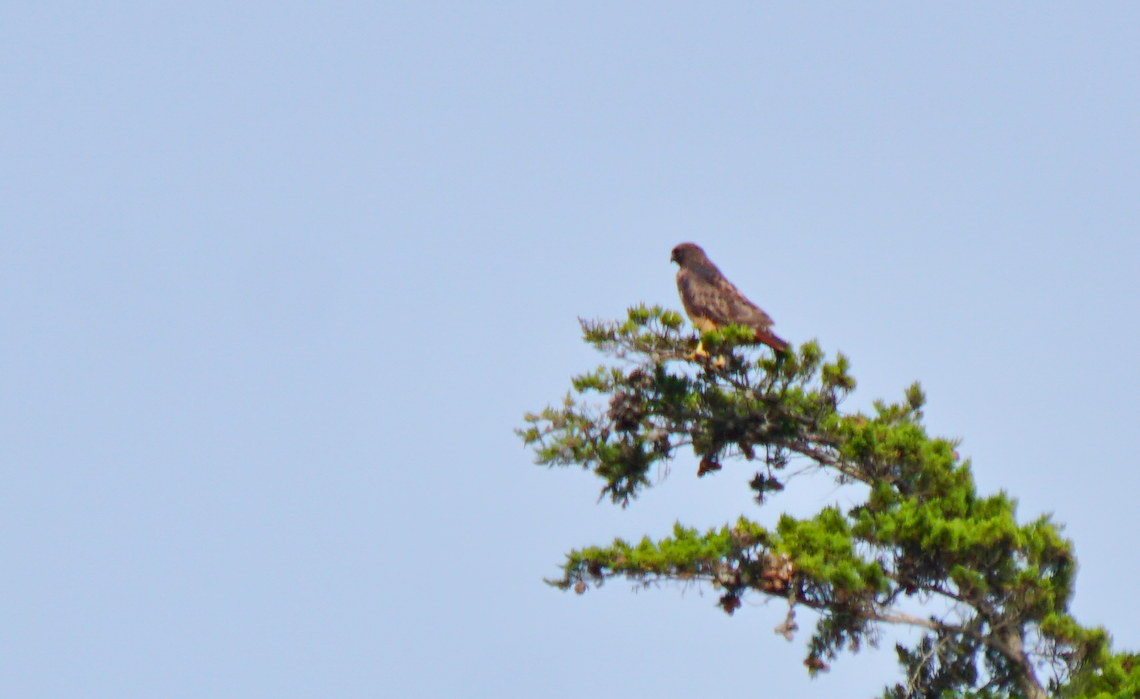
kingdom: Animalia
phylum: Chordata
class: Aves
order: Accipitriformes
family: Accipitridae
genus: Buteo
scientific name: Buteo jamaicensis
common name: Red-tailed hawk
